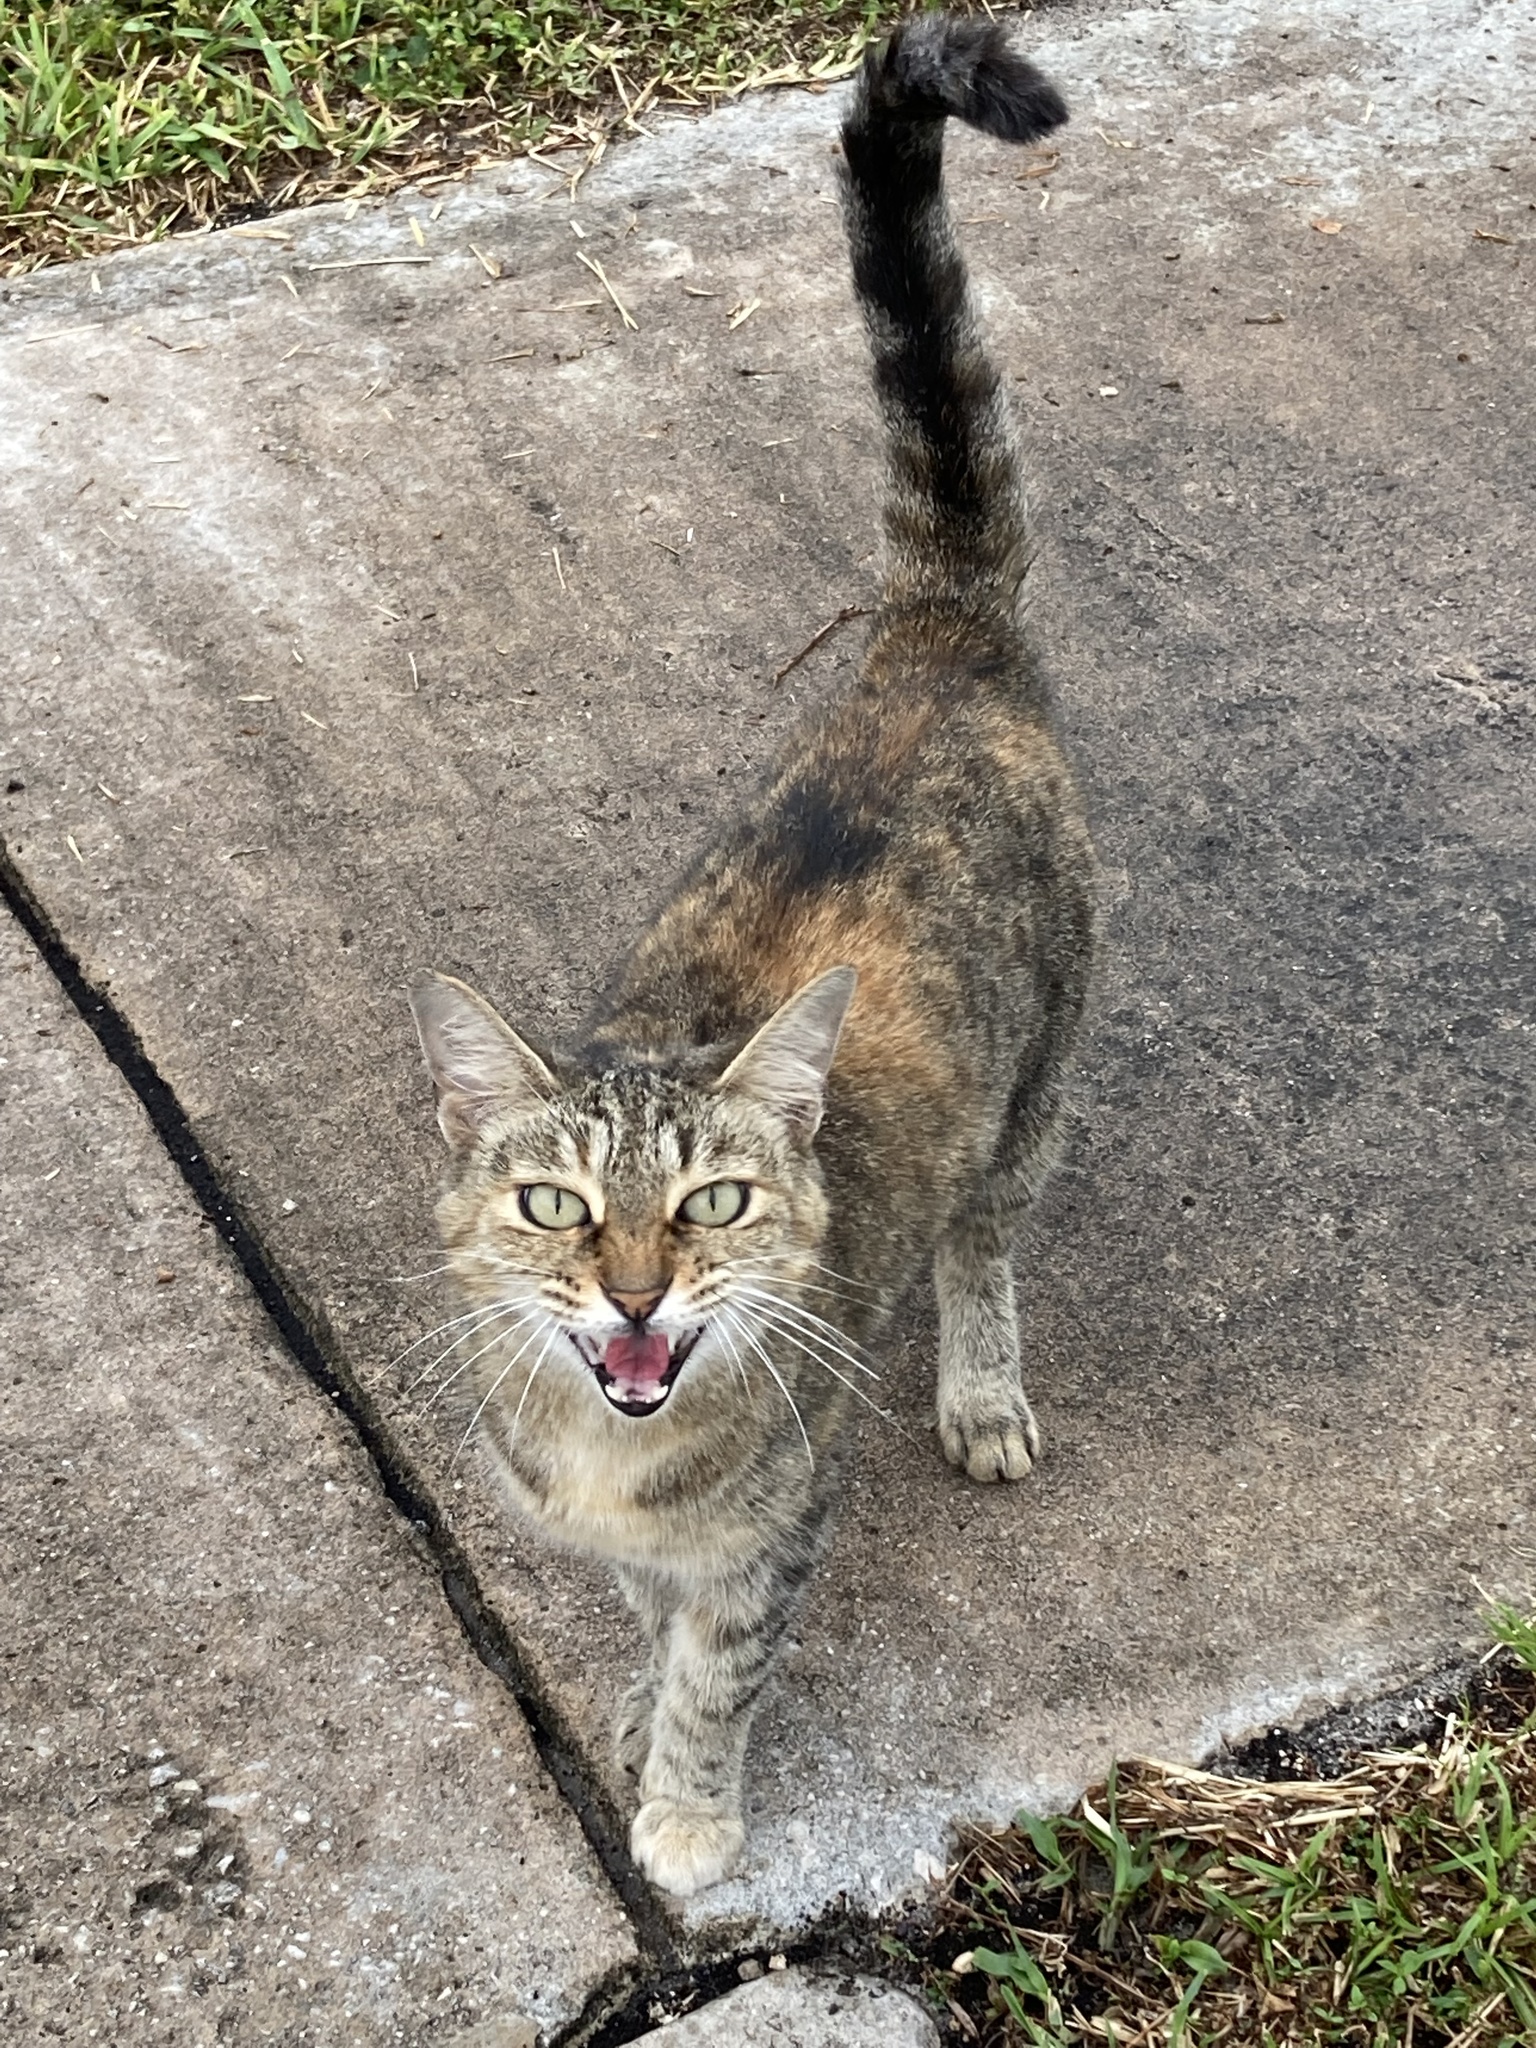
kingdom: Animalia
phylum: Chordata
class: Mammalia
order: Carnivora
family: Felidae
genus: Felis
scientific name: Felis catus
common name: Domestic cat
